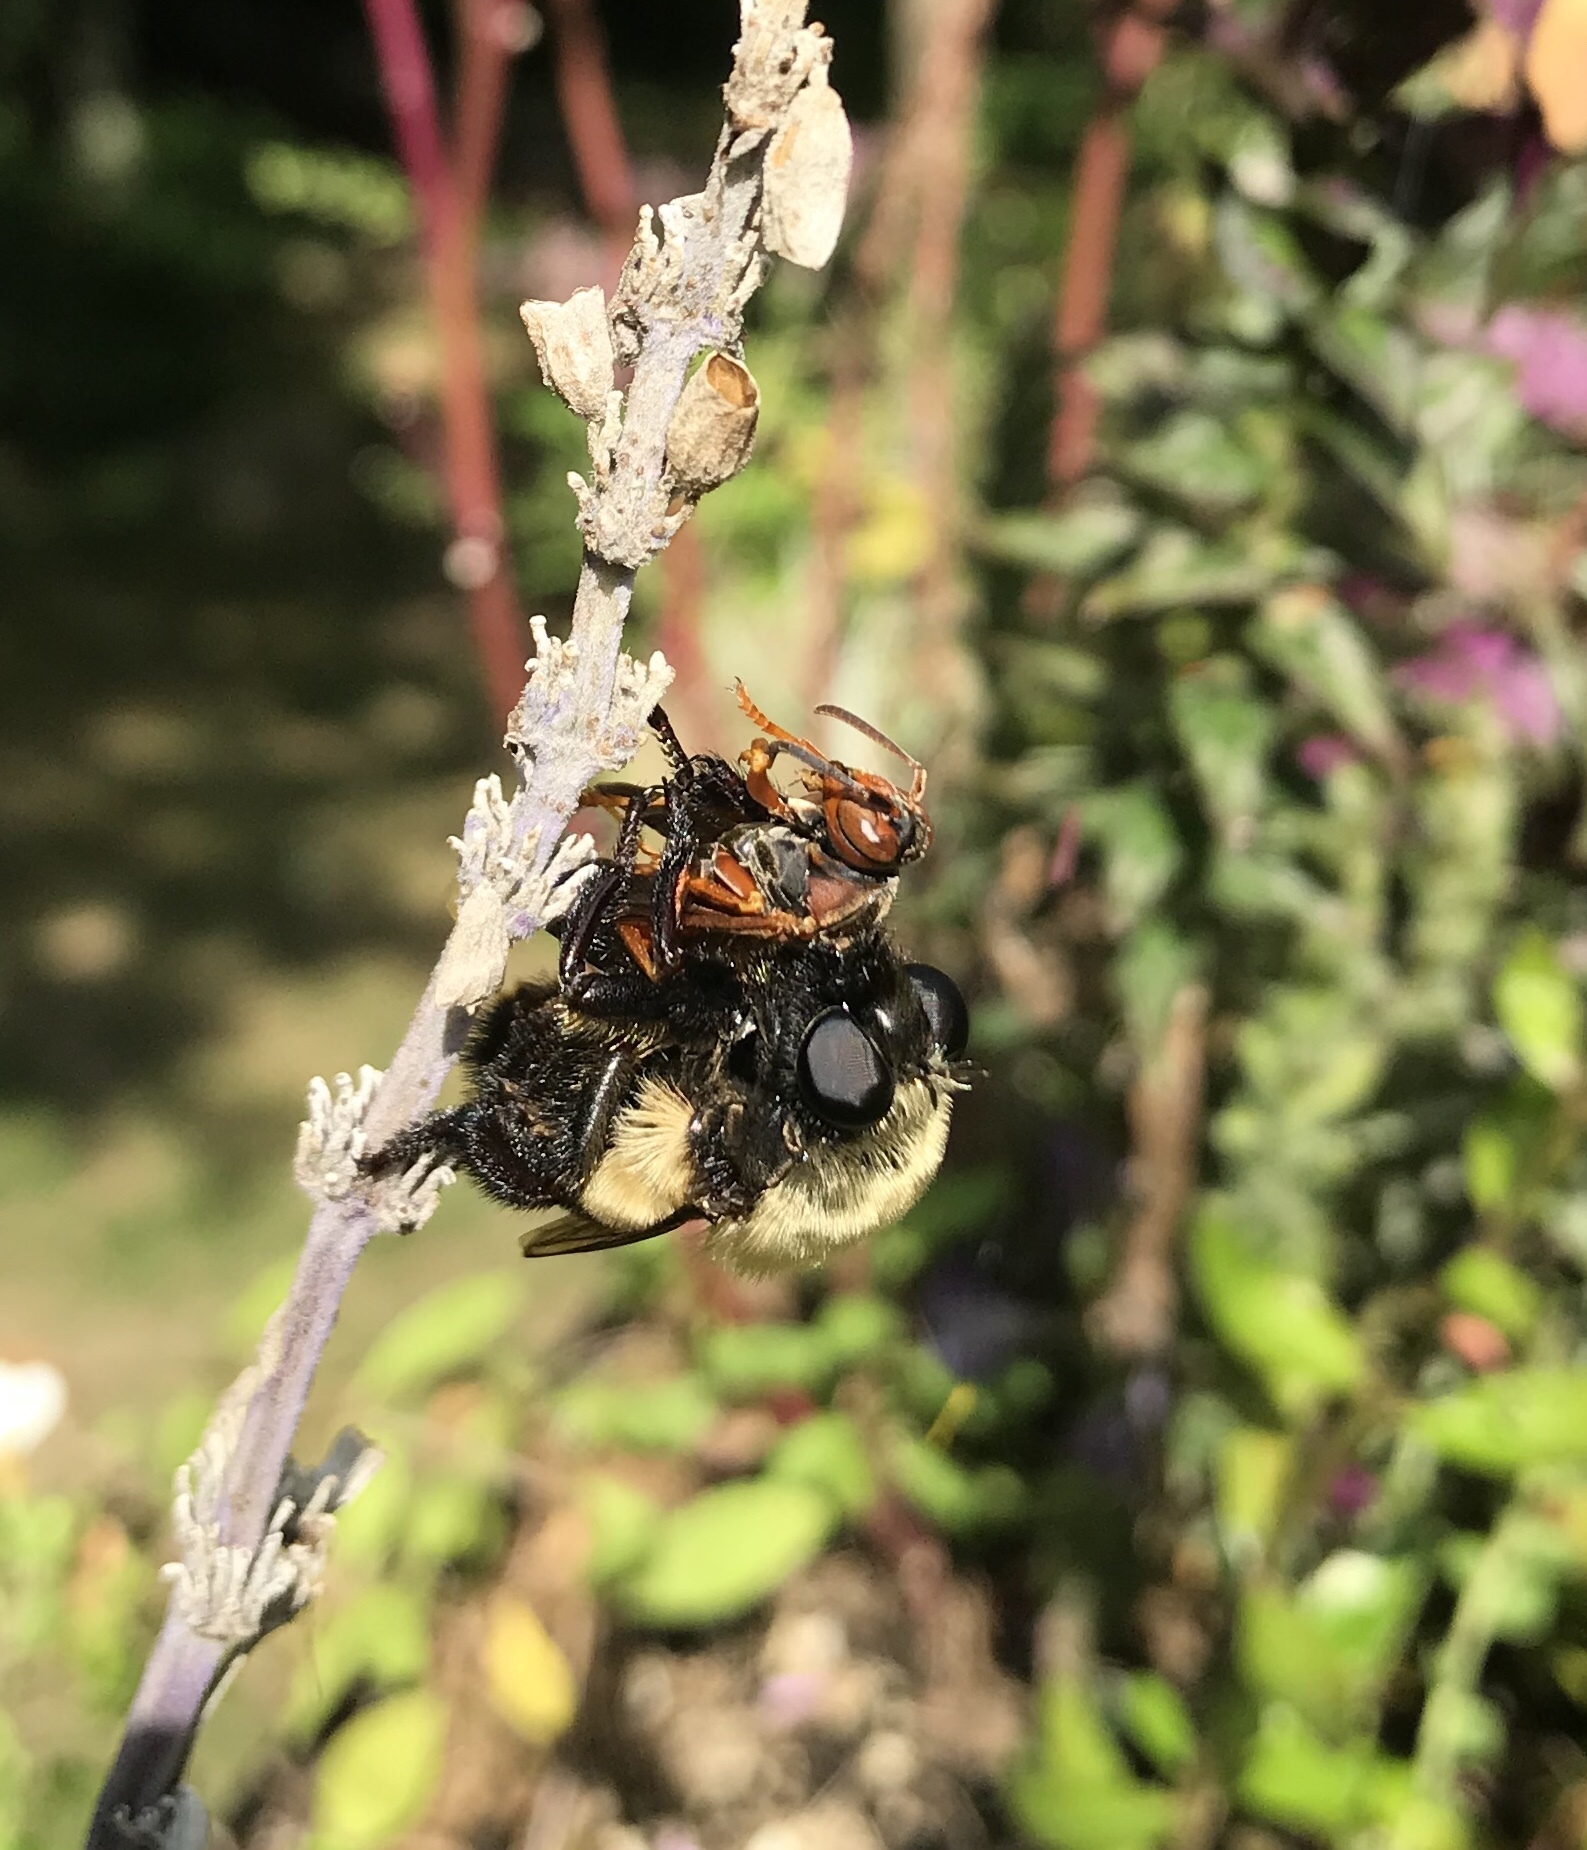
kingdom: Animalia
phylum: Arthropoda
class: Insecta
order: Diptera
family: Asilidae
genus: Dasylechia
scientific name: Dasylechia atrox
